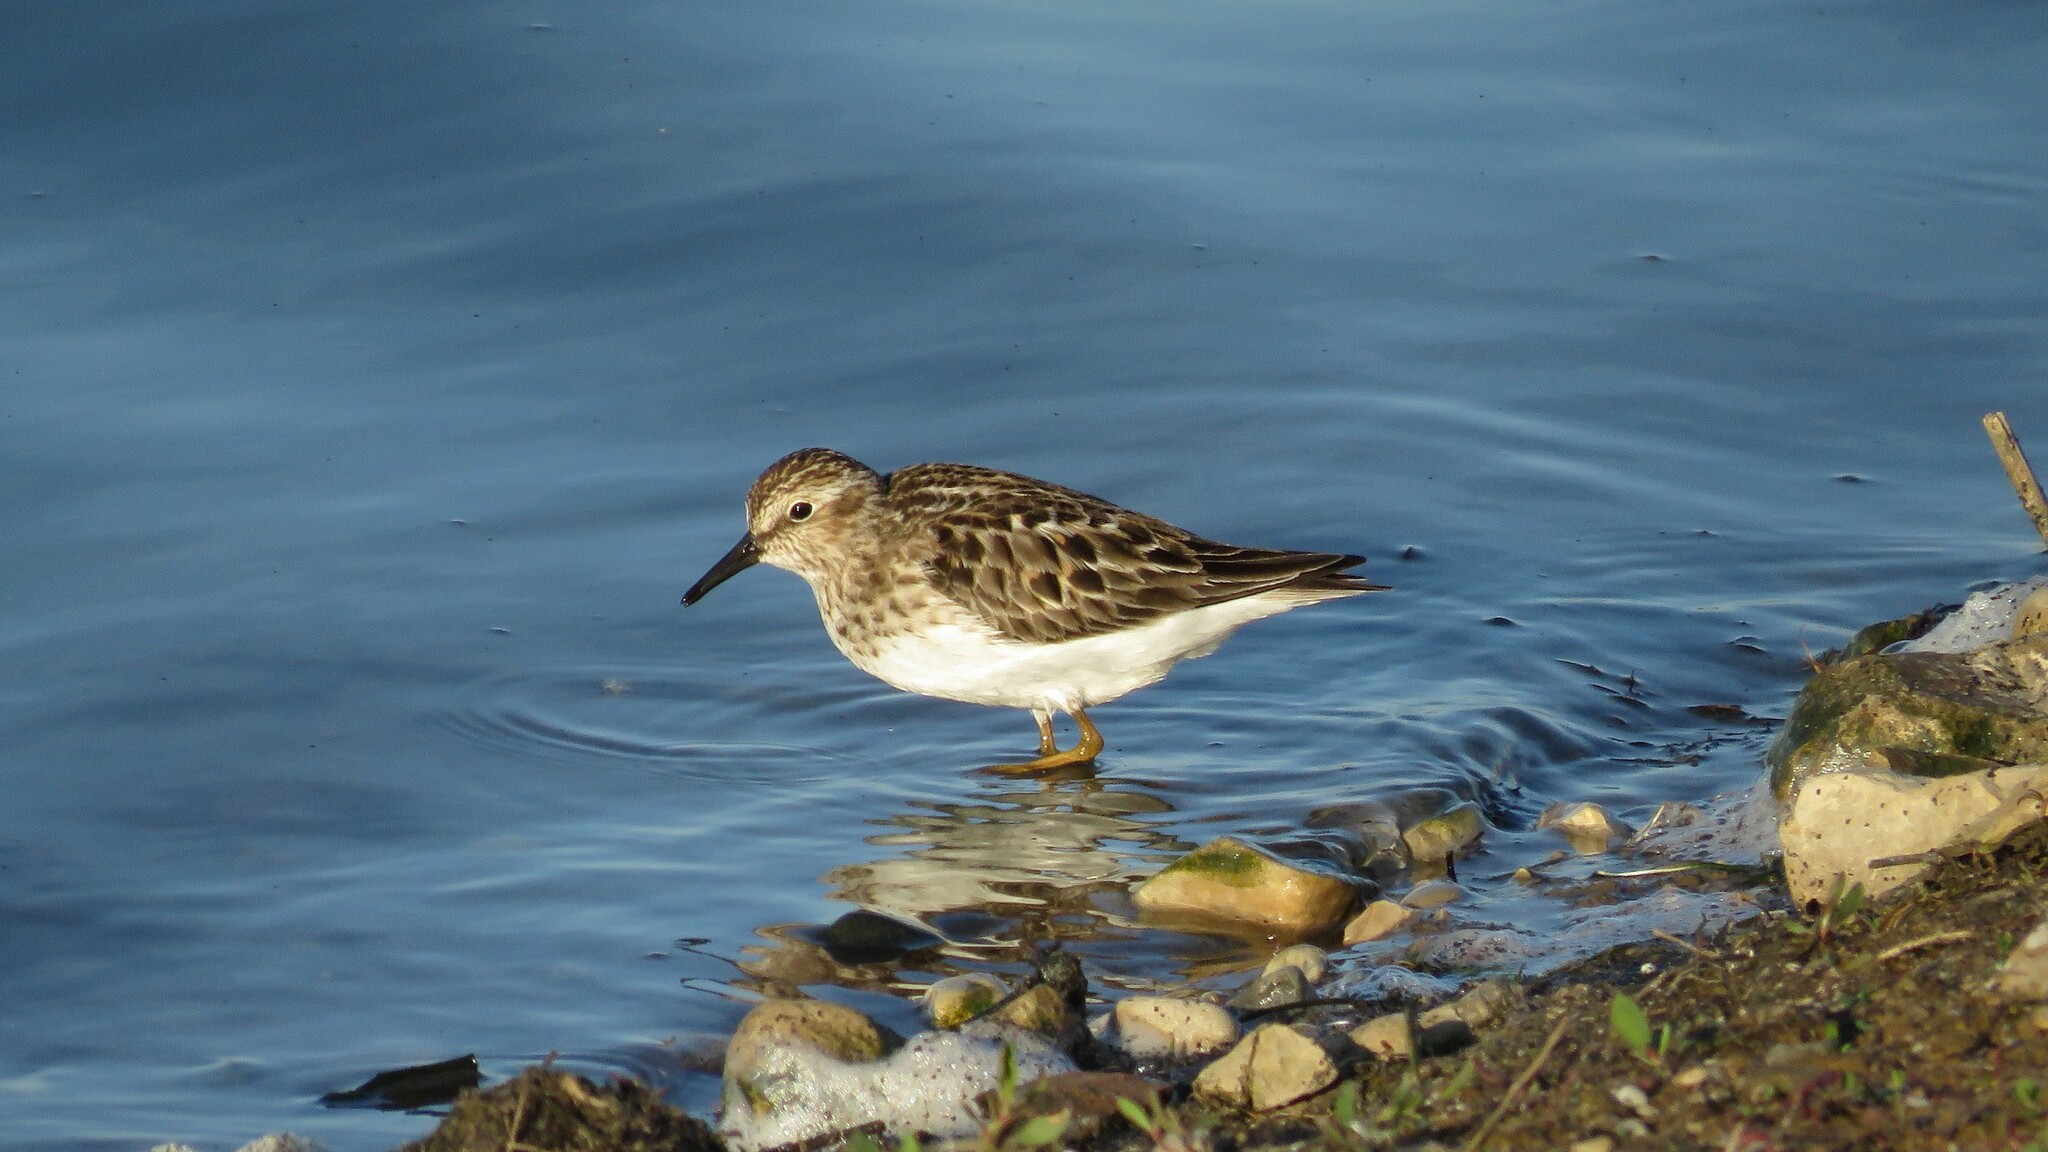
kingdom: Animalia
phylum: Chordata
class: Aves
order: Charadriiformes
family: Scolopacidae
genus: Calidris
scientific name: Calidris minutilla
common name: Least sandpiper
